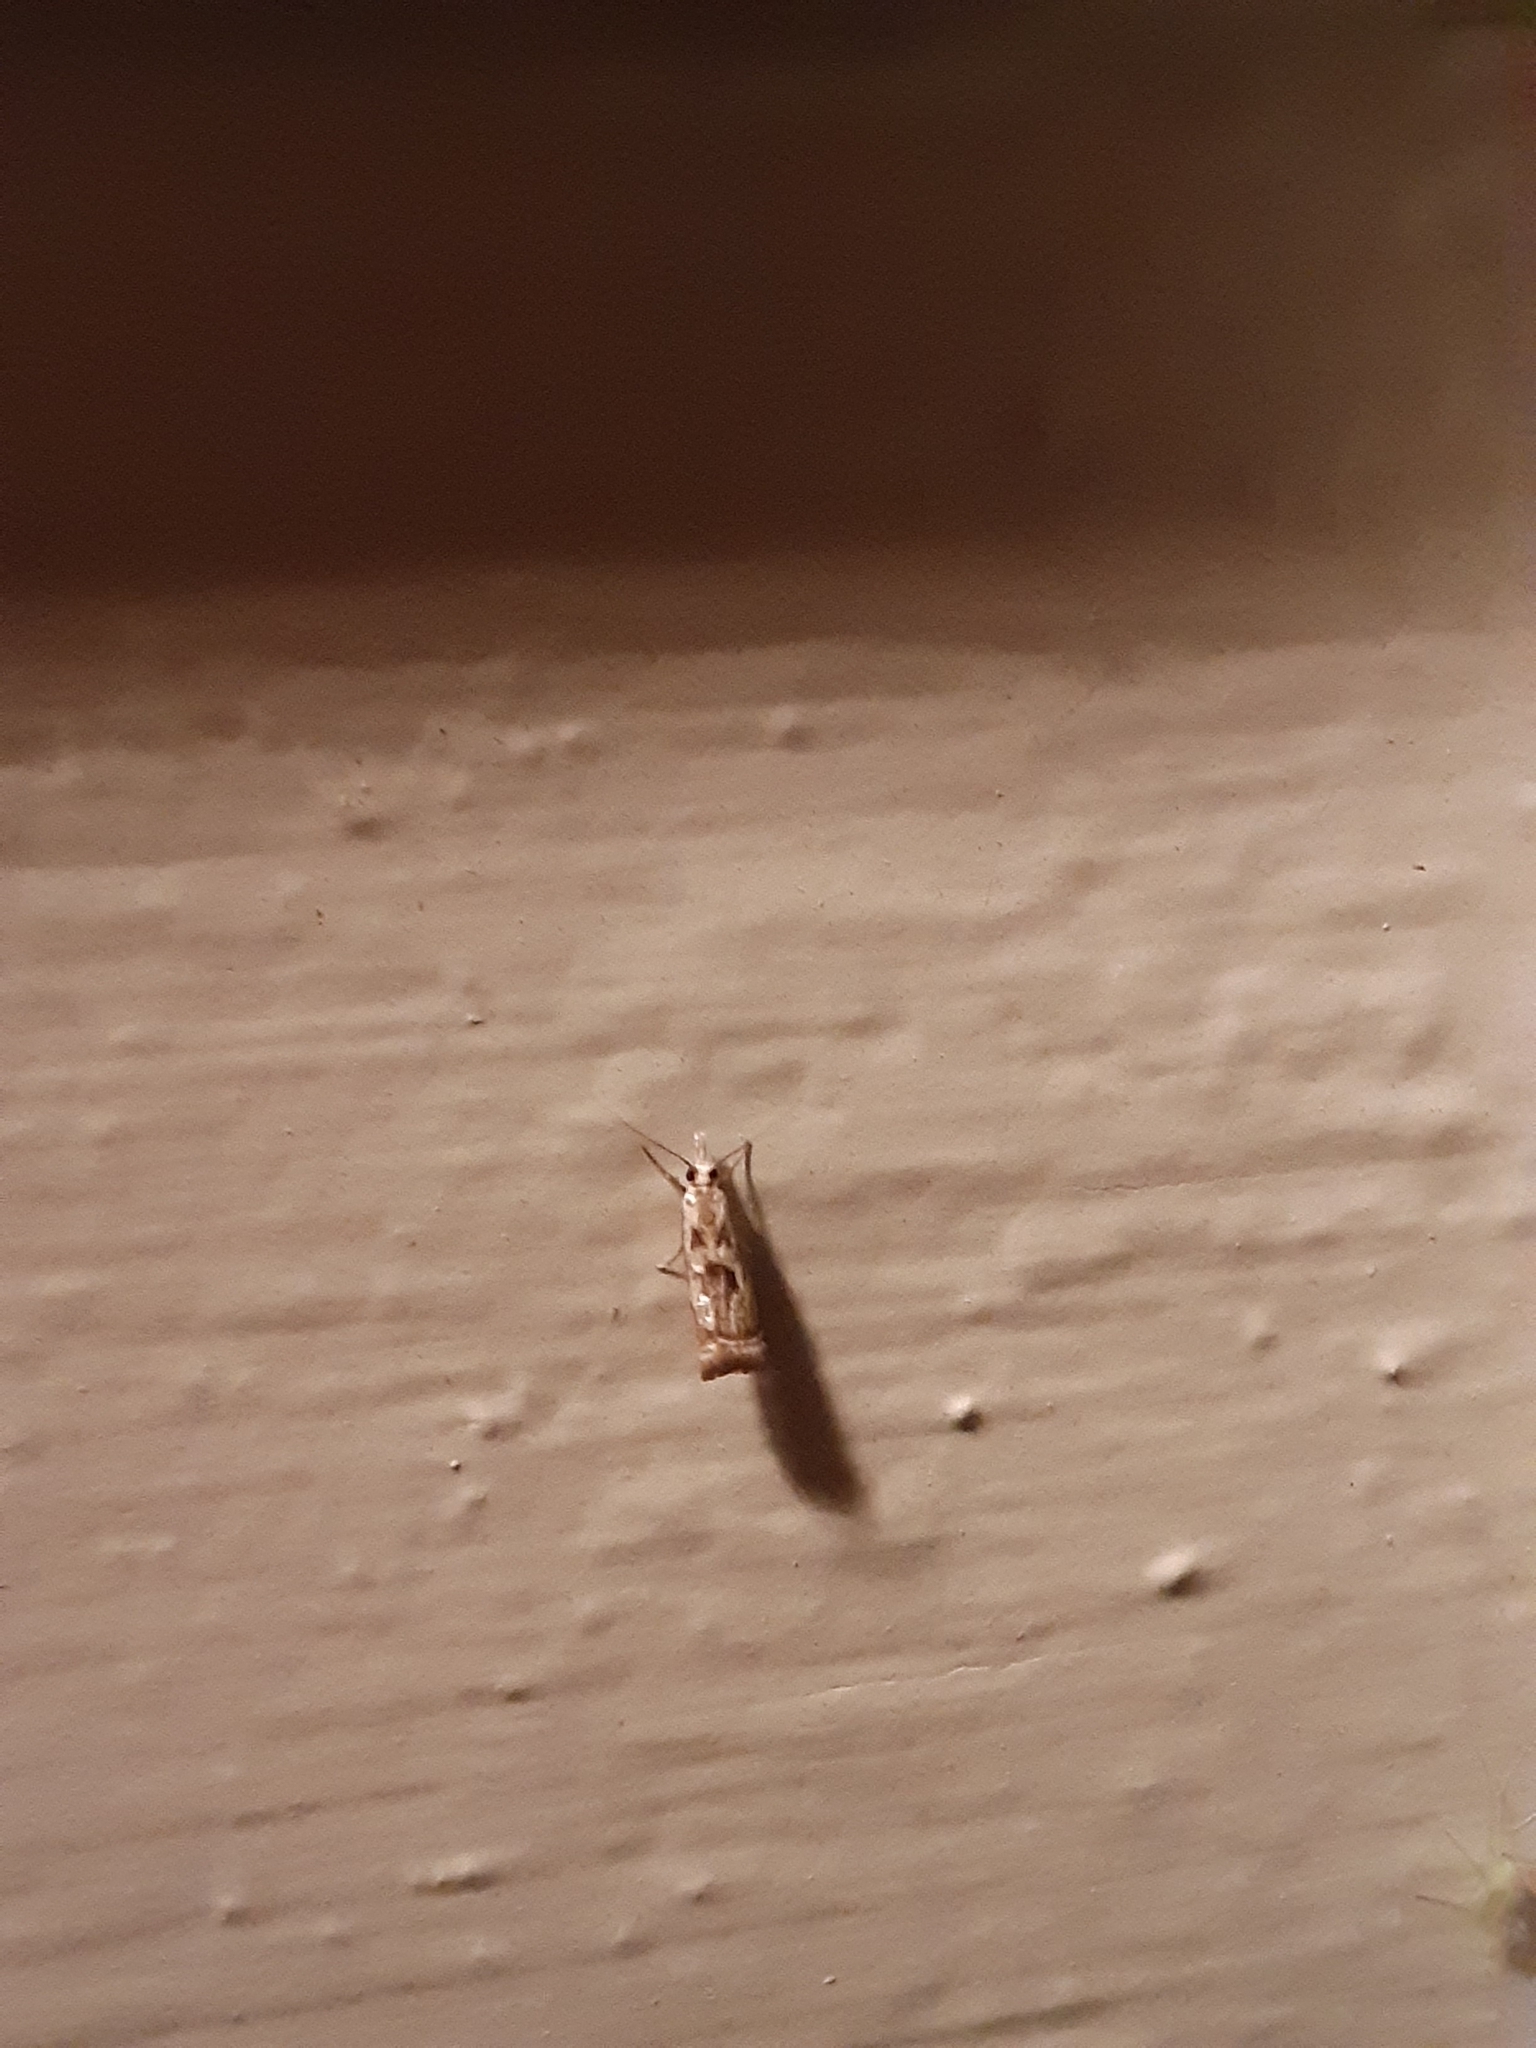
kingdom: Animalia
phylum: Arthropoda
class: Insecta
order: Lepidoptera
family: Crambidae
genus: Microcrambus
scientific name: Microcrambus elegans
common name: Elegant grass-veneer
